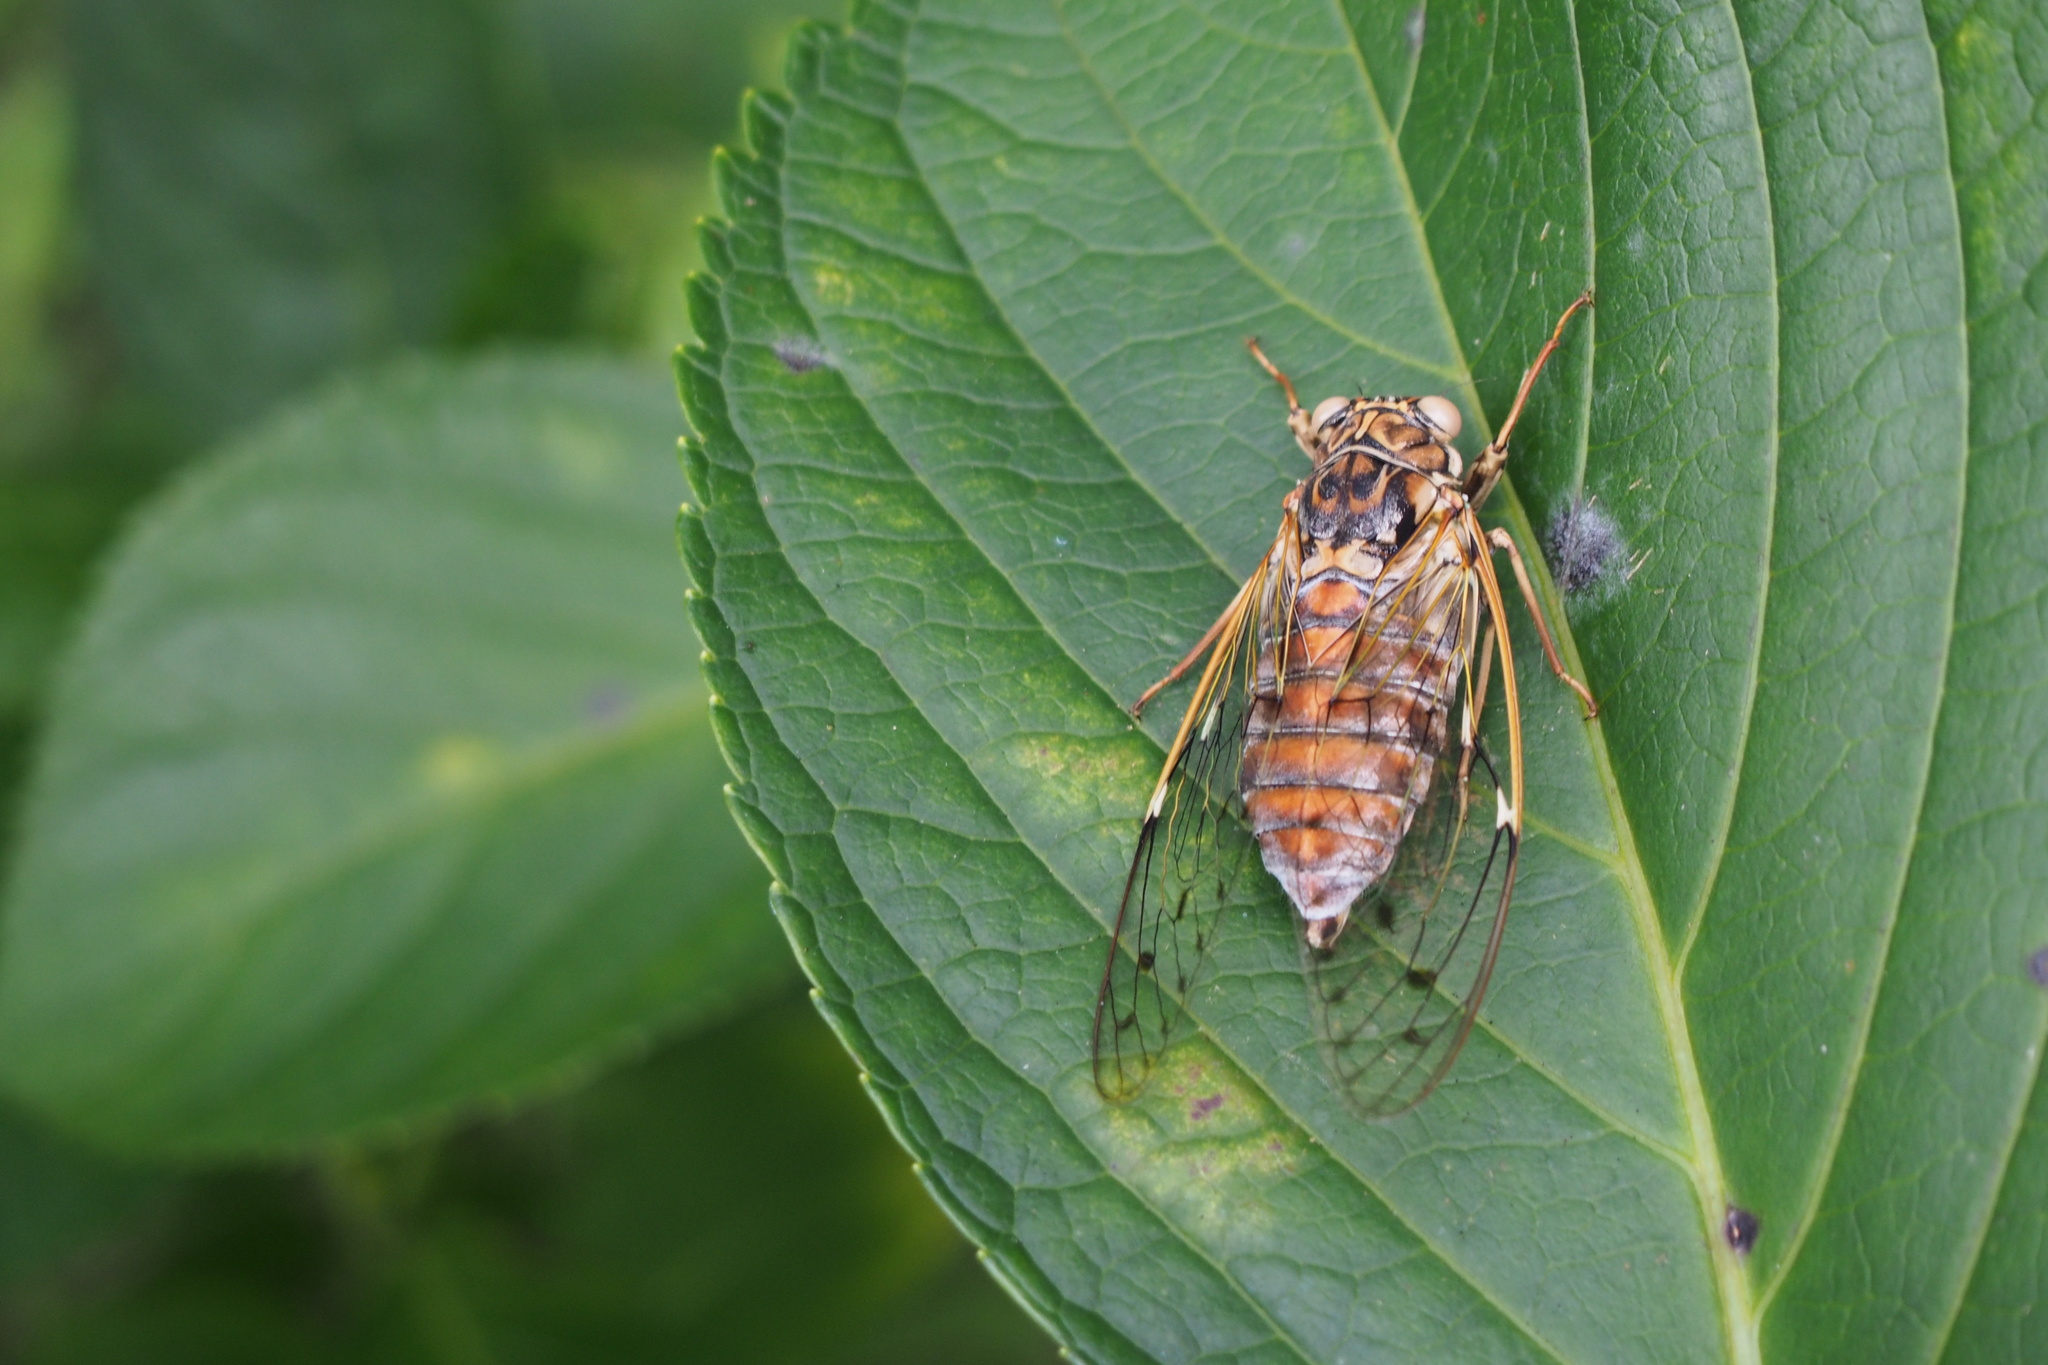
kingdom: Animalia
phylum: Arthropoda
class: Insecta
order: Hemiptera
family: Cicadidae
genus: Tanna
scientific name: Tanna japonensis
